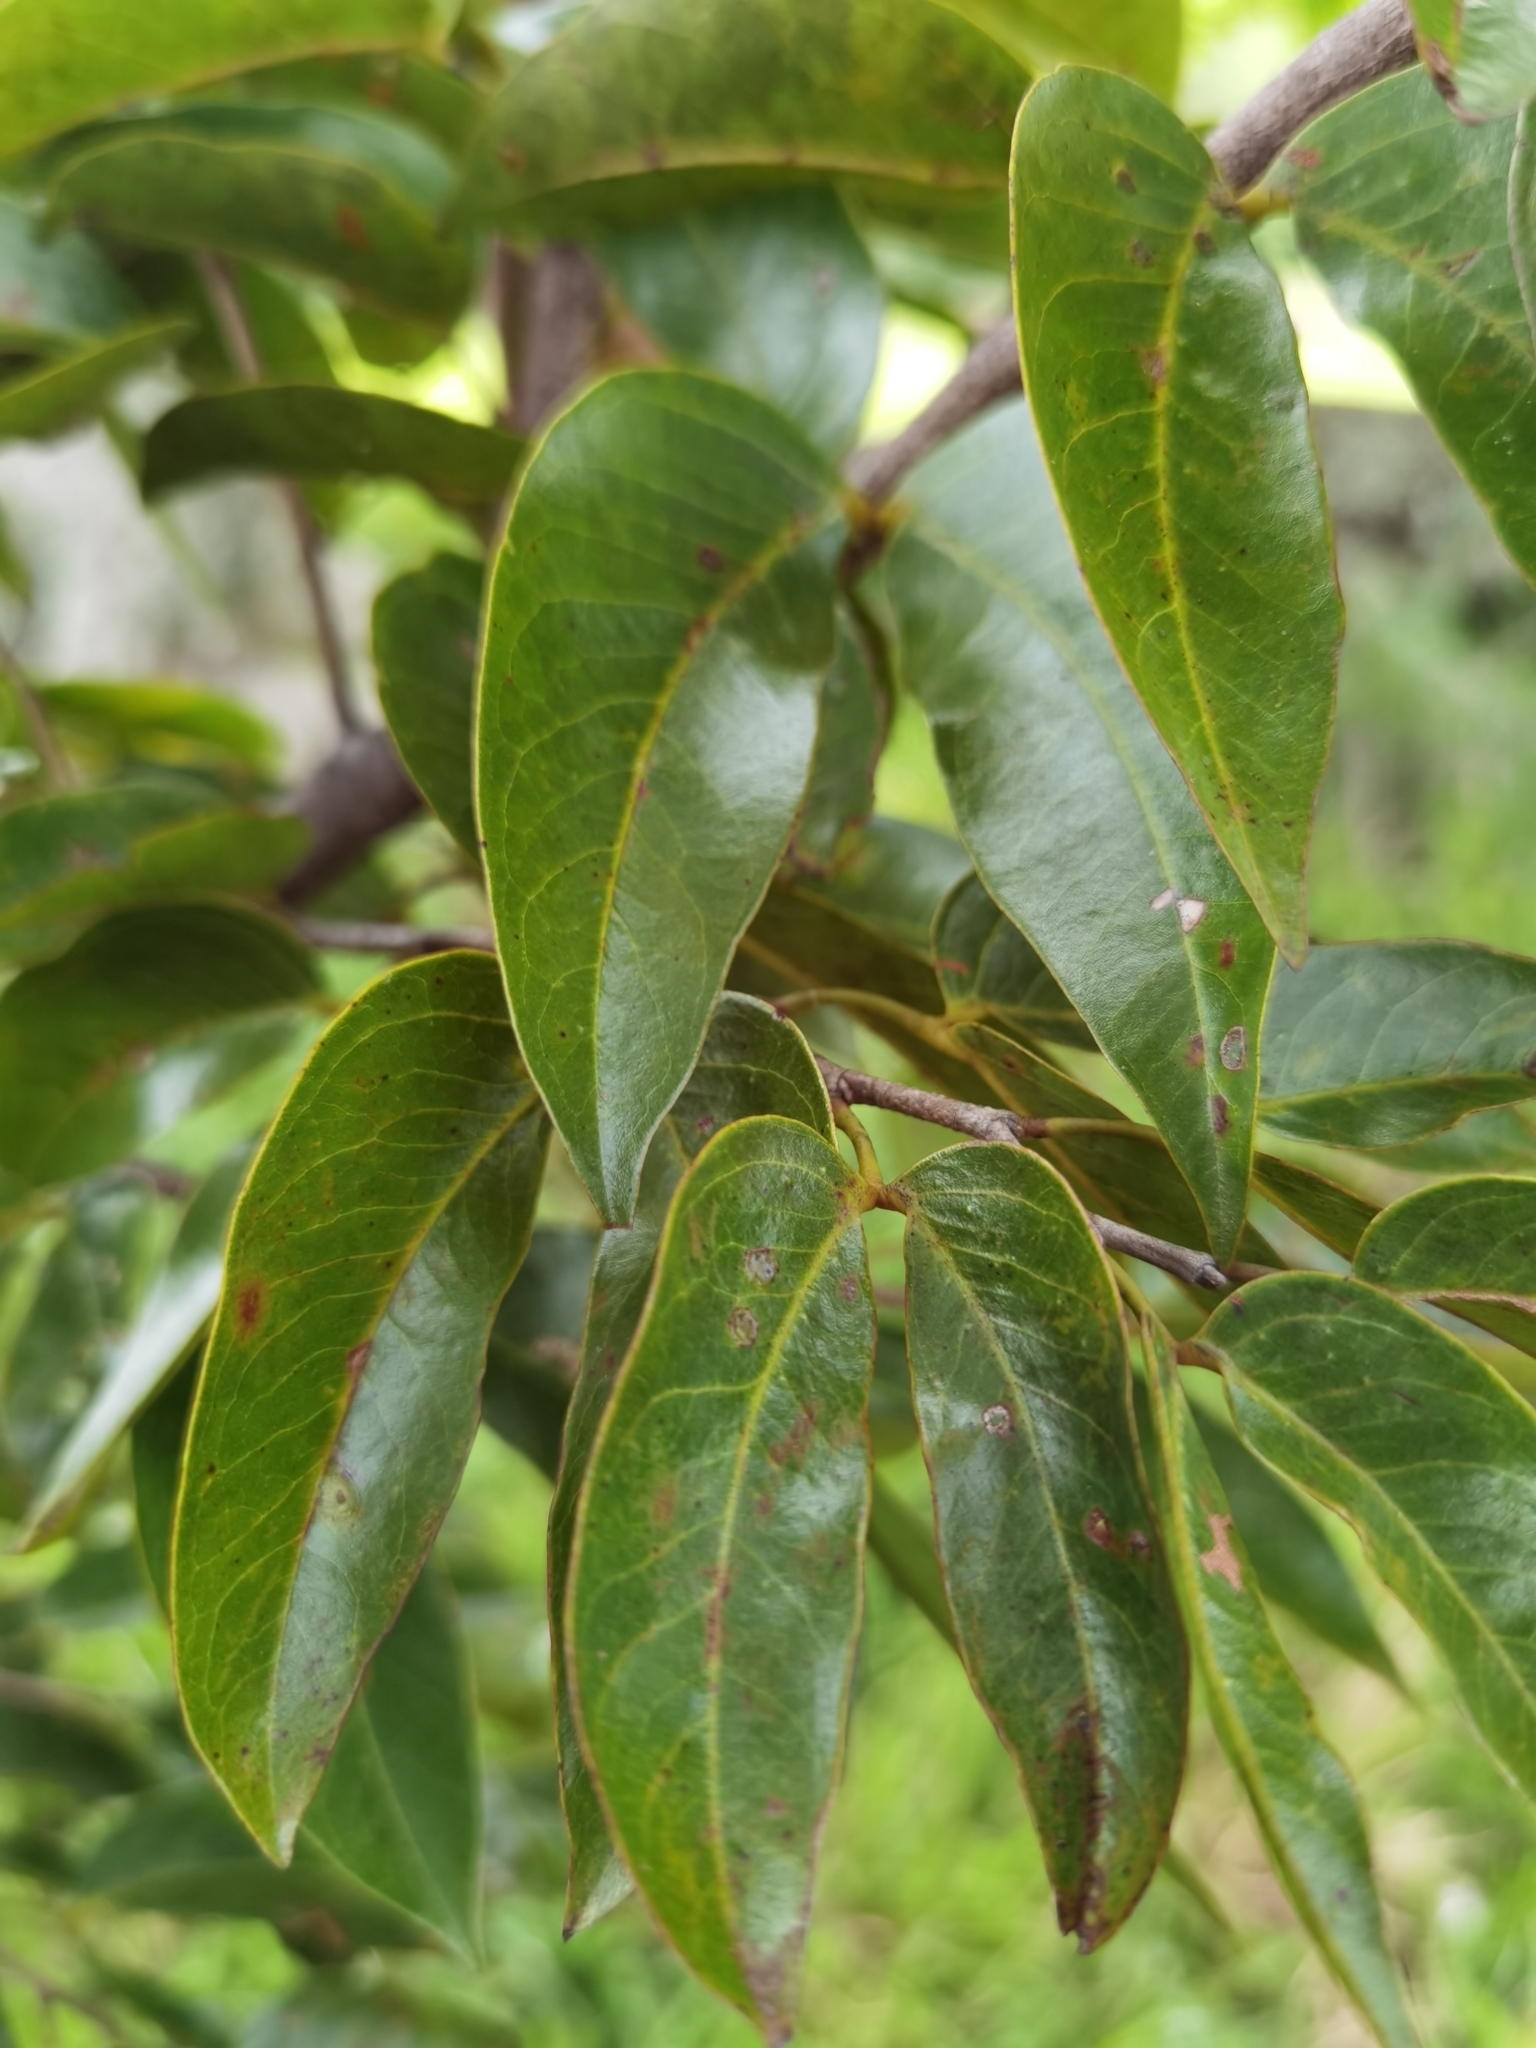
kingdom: Plantae
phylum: Tracheophyta
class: Magnoliopsida
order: Fabales
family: Fabaceae
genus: Hymenaea
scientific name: Hymenaea courbaril
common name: Brazilian copal
